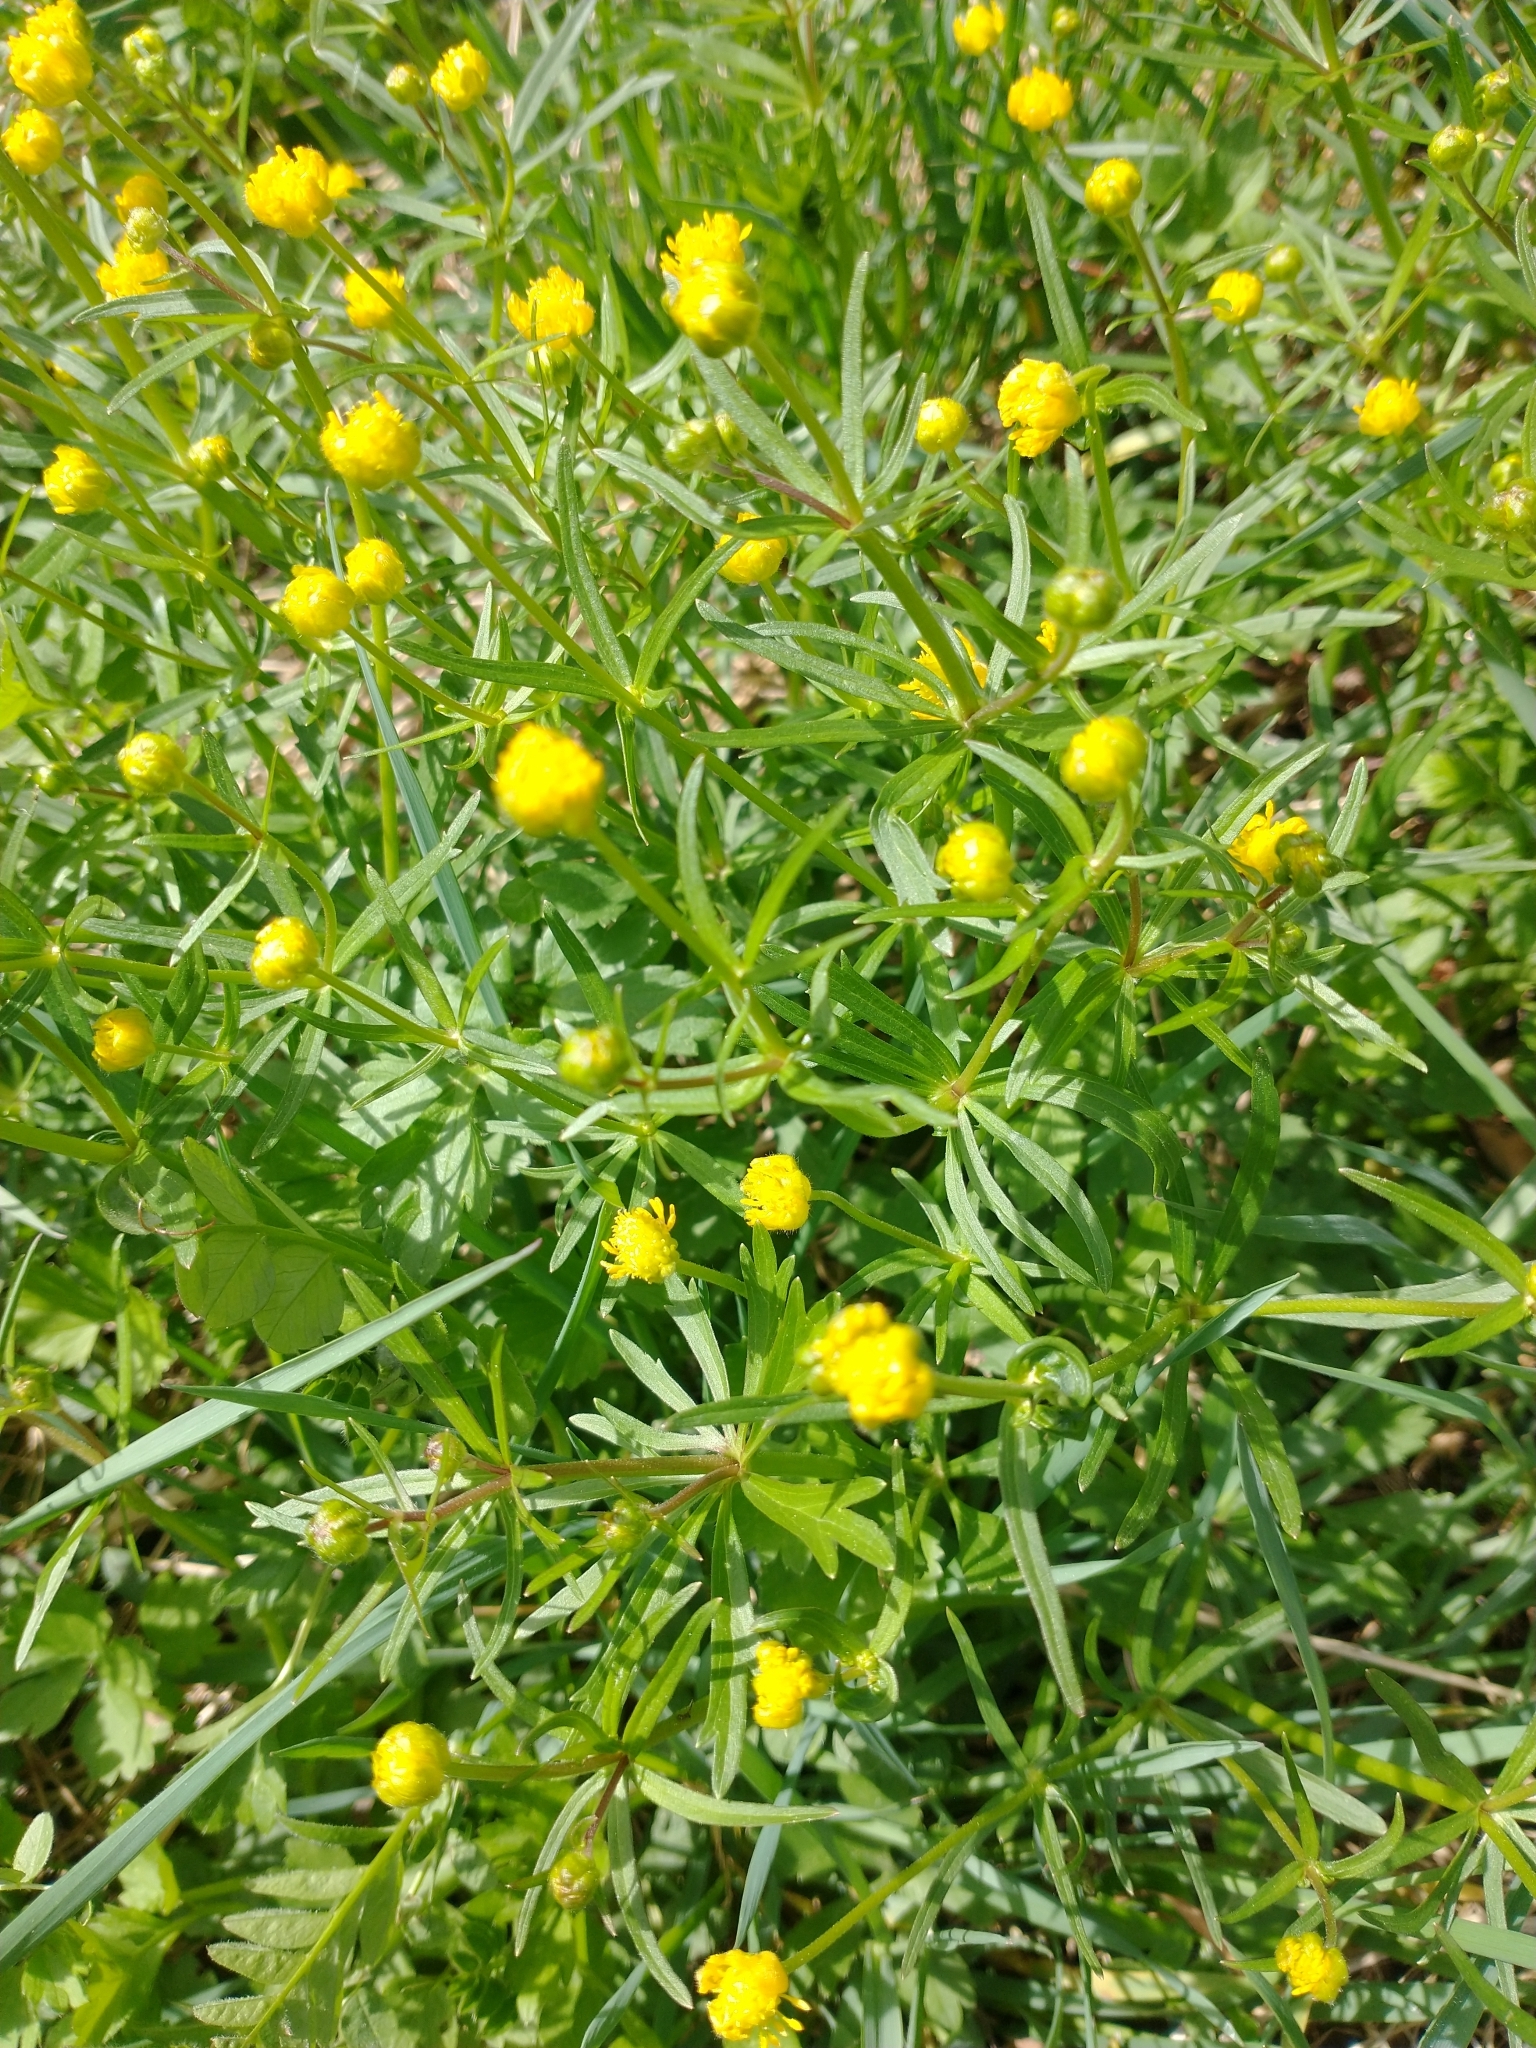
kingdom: Plantae
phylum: Tracheophyta
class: Magnoliopsida
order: Ranunculales
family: Ranunculaceae
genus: Ranunculus
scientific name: Ranunculus auricomus
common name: Goldilocks buttercup
